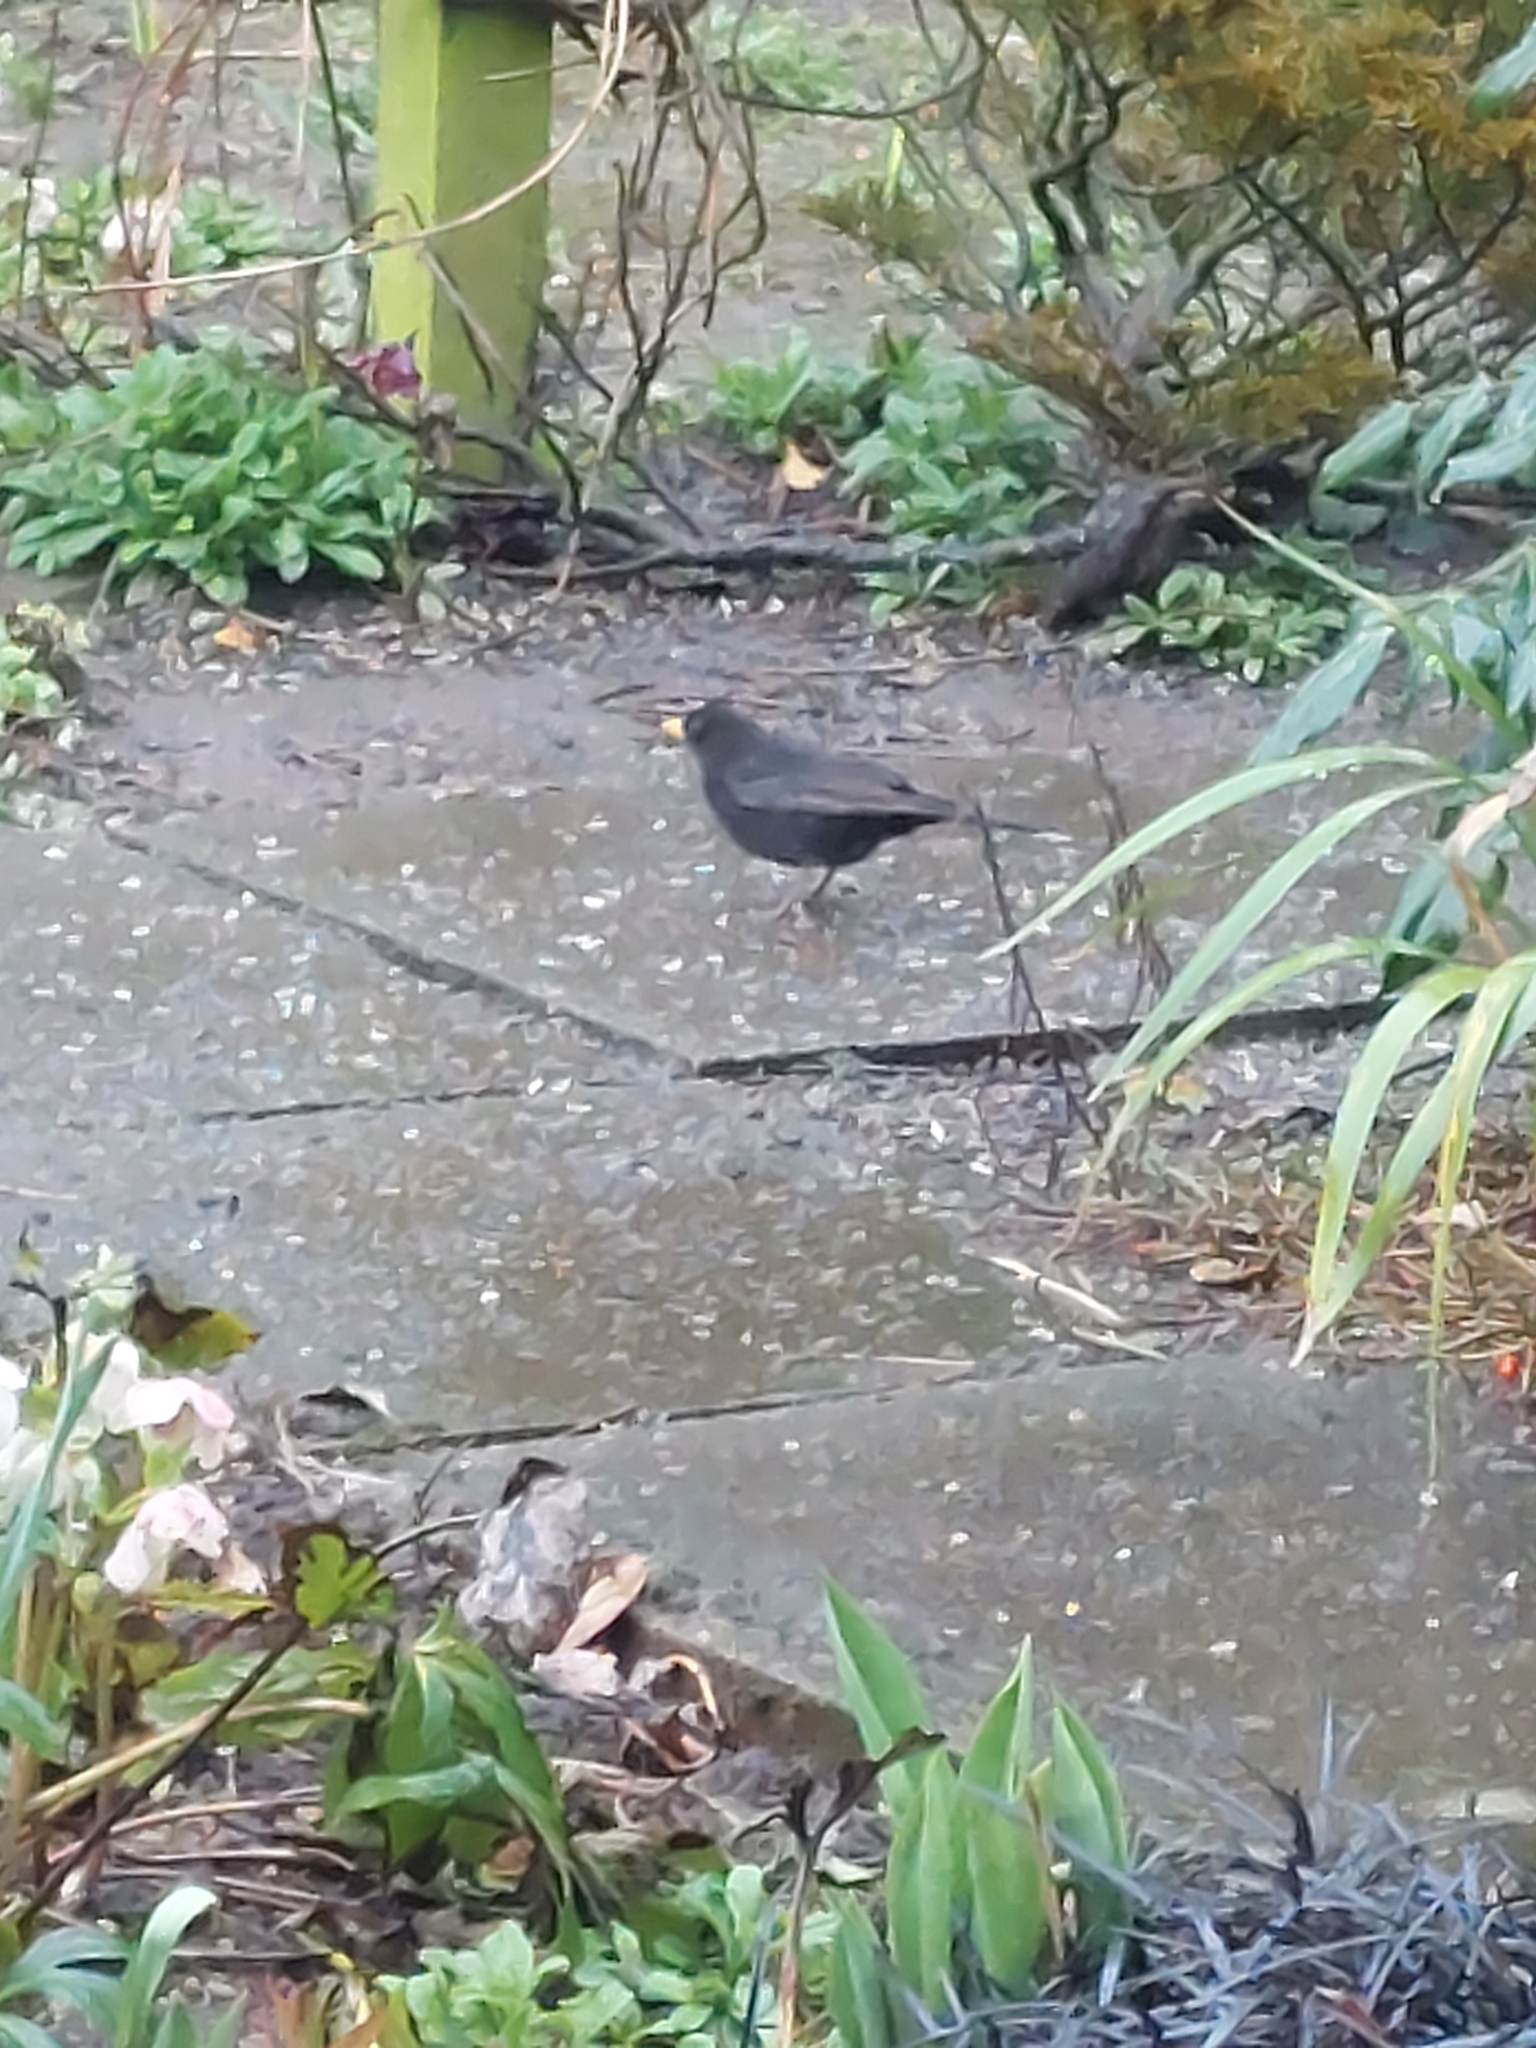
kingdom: Animalia
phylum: Chordata
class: Aves
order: Passeriformes
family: Turdidae
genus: Turdus
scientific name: Turdus merula
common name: Common blackbird
